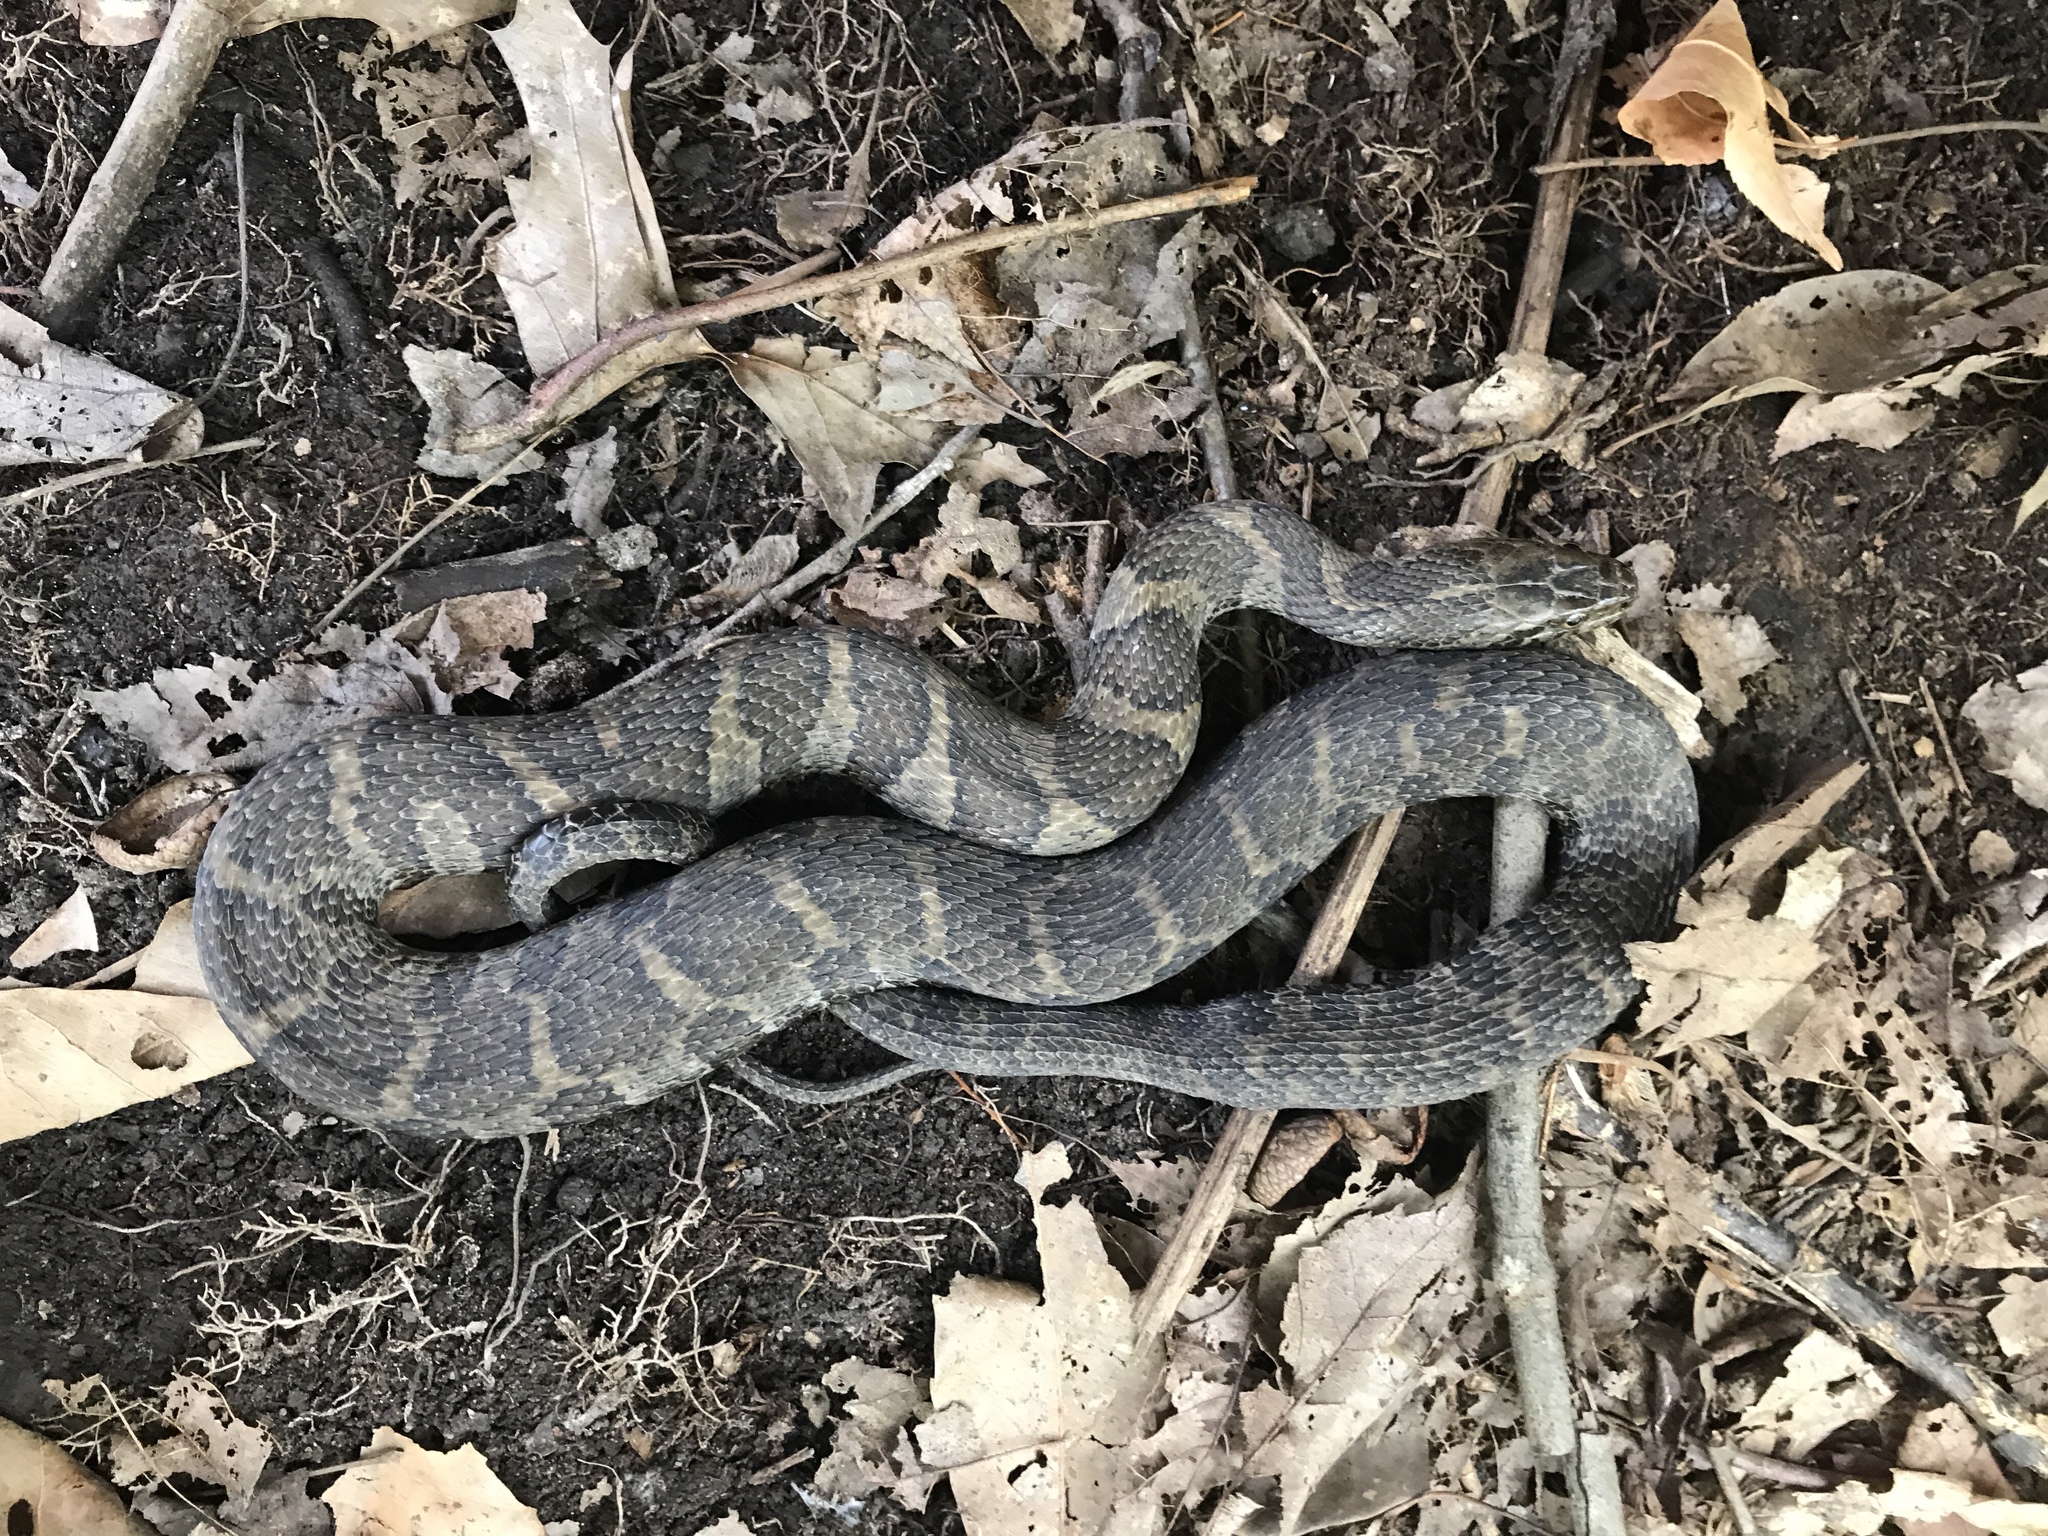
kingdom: Animalia
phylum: Chordata
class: Squamata
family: Colubridae
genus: Nerodia
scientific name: Nerodia sipedon
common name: Northern water snake
